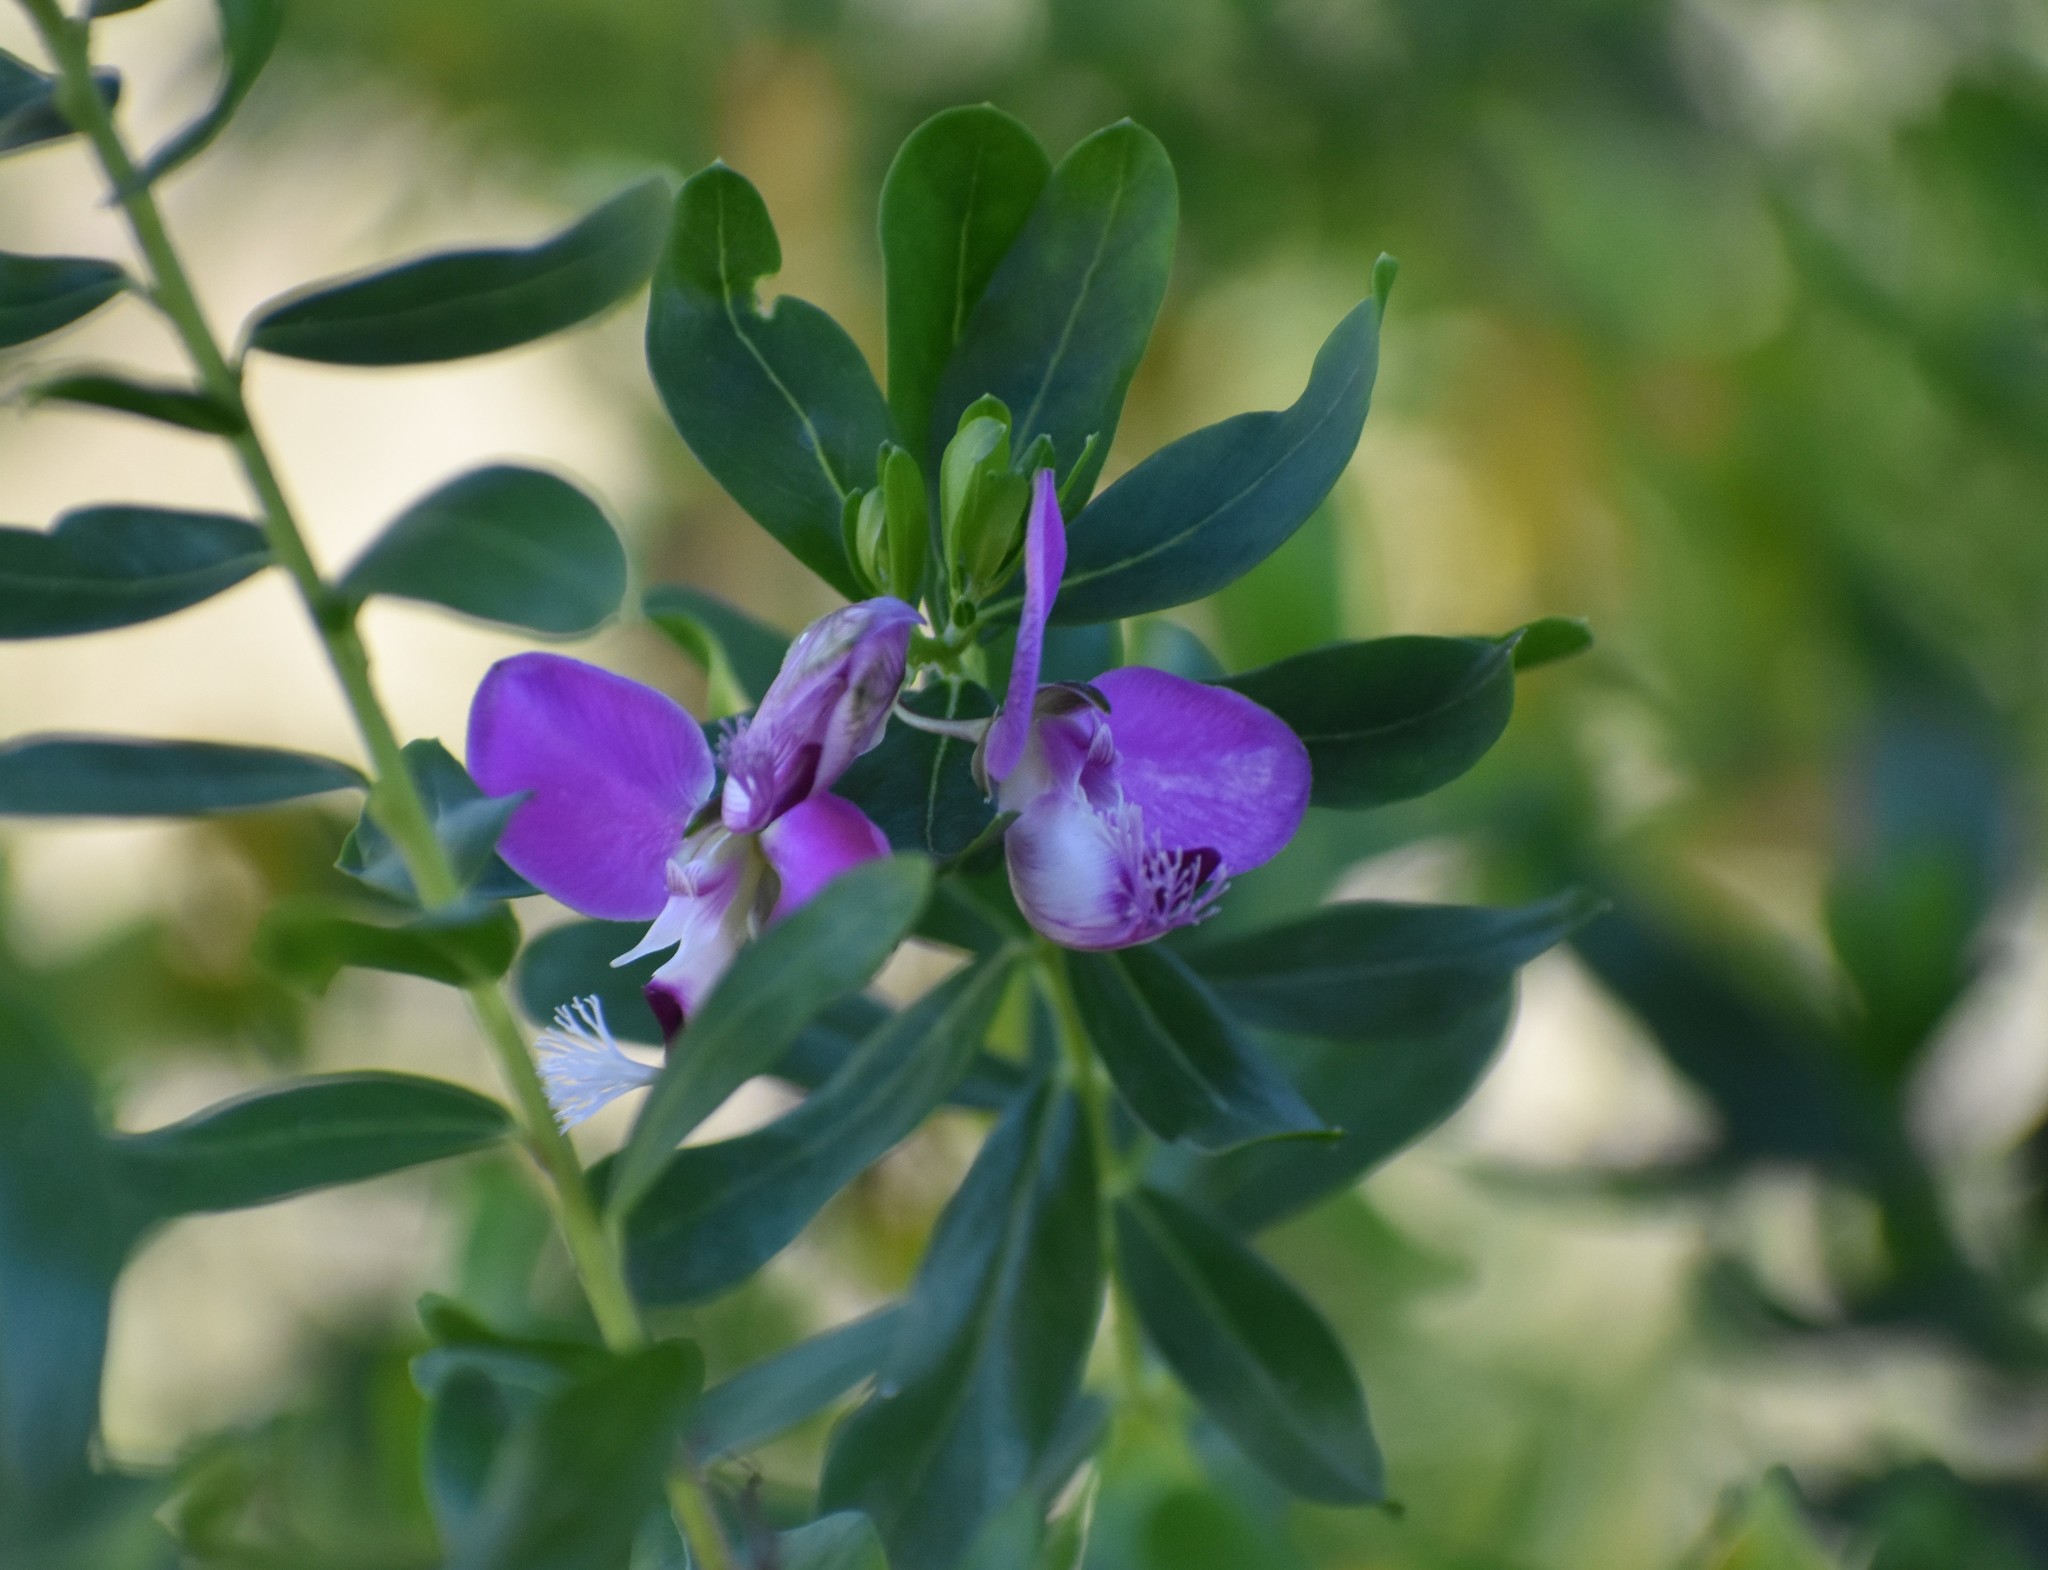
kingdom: Plantae
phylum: Tracheophyta
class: Magnoliopsida
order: Fabales
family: Polygalaceae
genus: Polygala
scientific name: Polygala myrtifolia
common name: Myrtle-leaf milkwort
